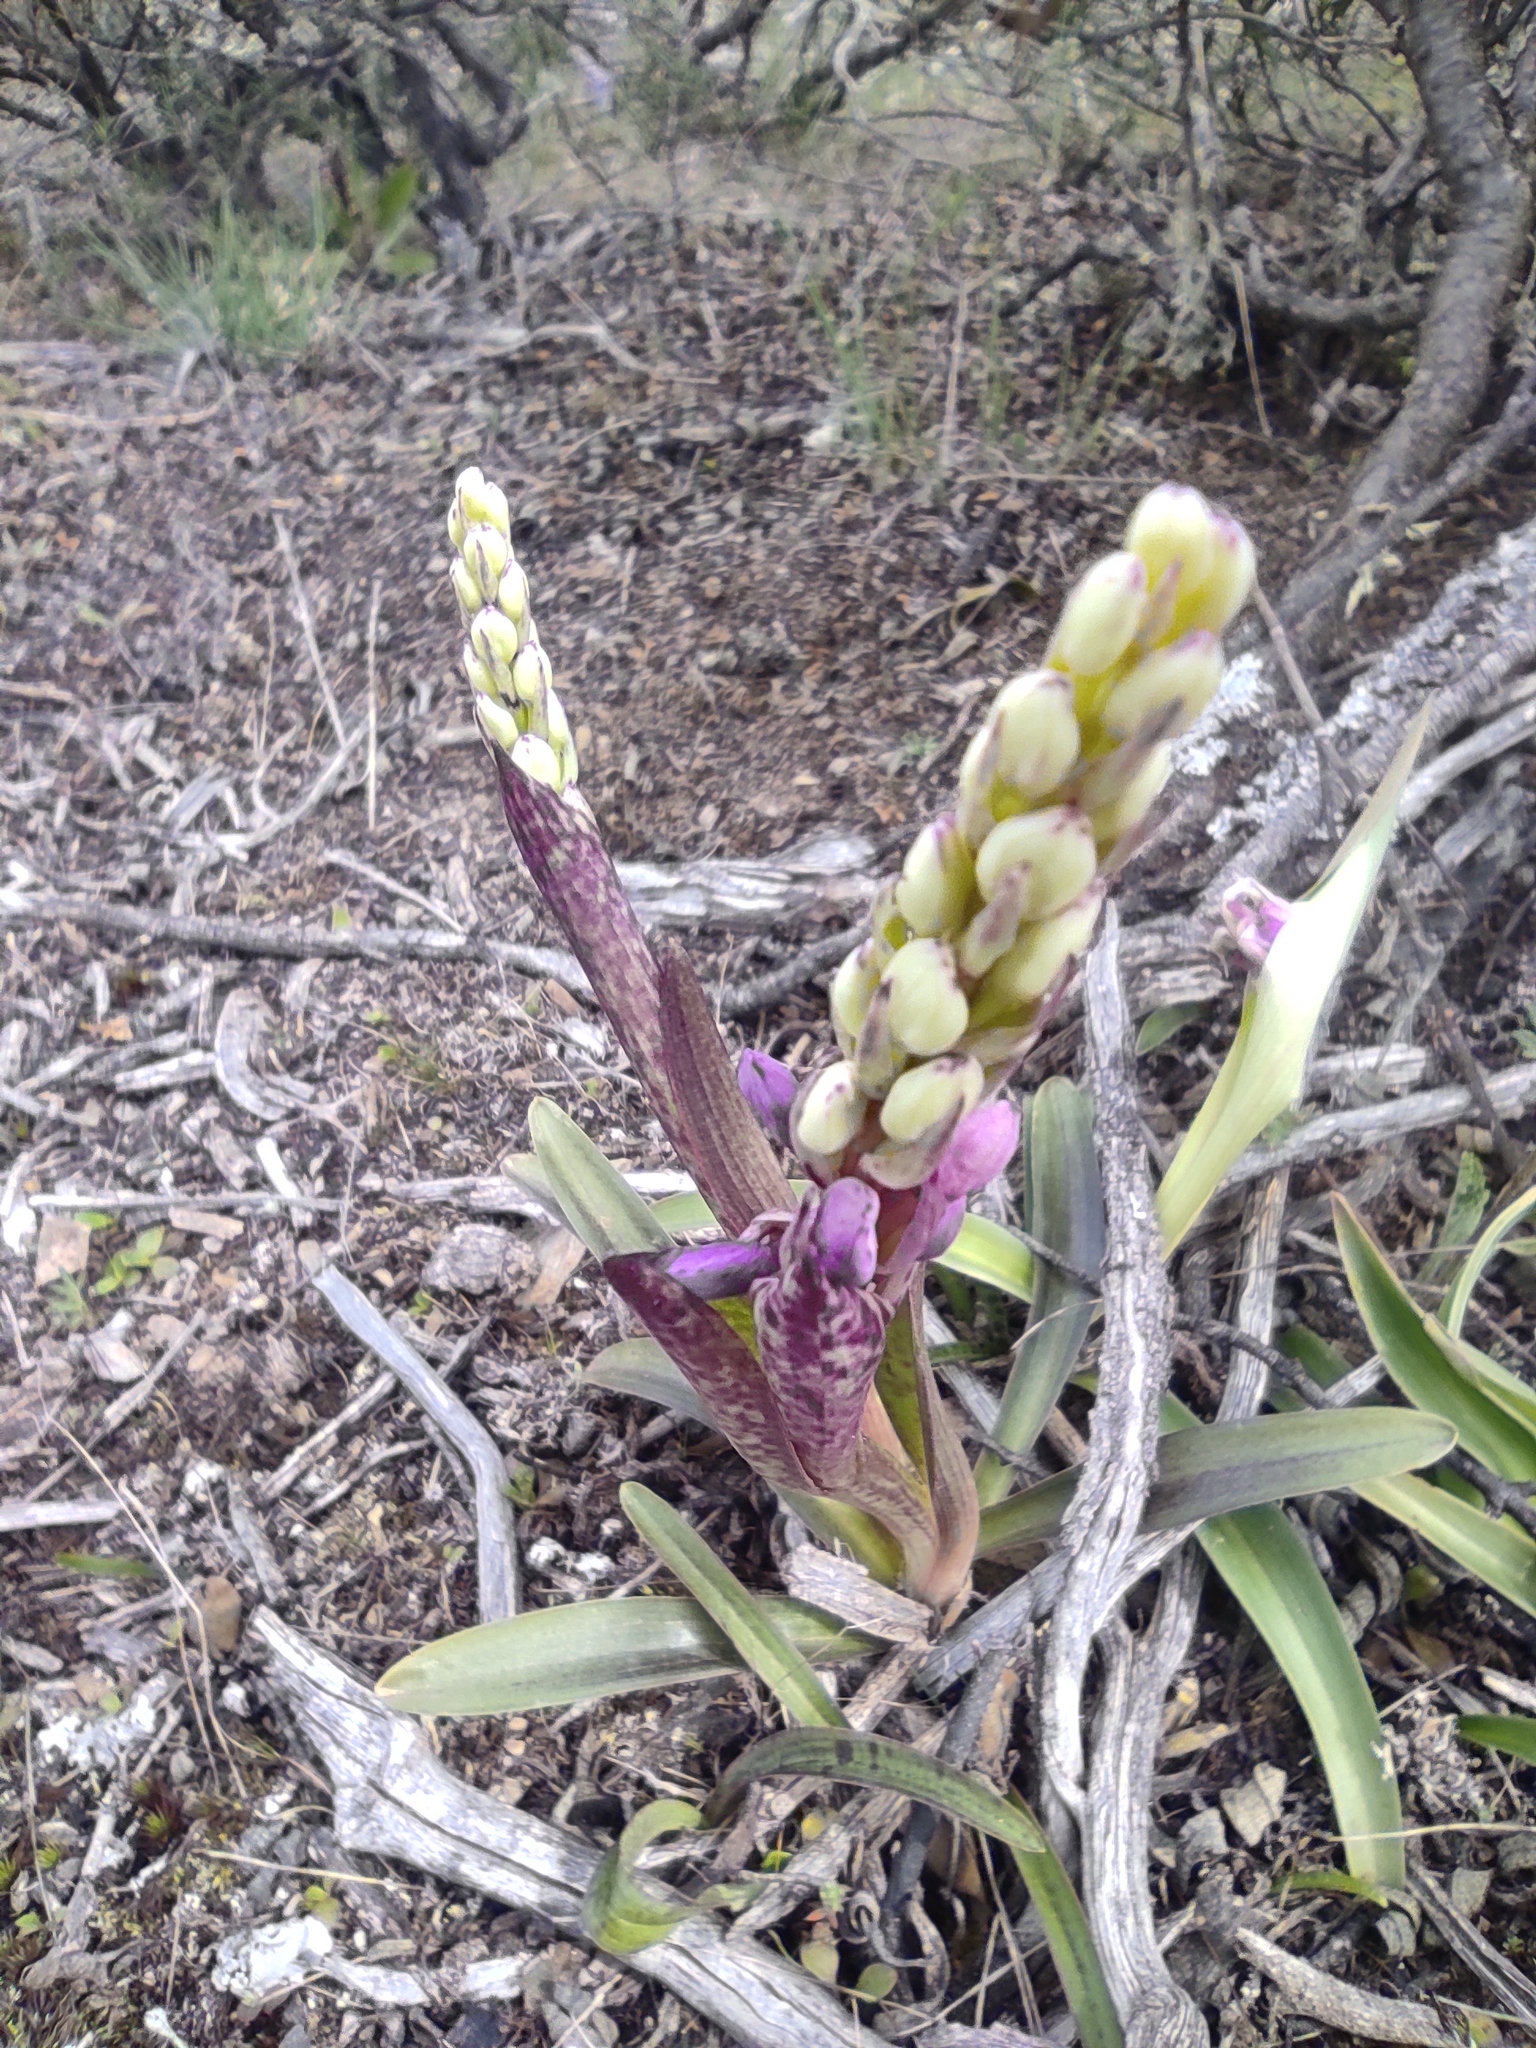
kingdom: Plantae
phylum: Tracheophyta
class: Liliopsida
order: Asparagales
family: Orchidaceae
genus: Orchis
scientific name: Orchis mascula
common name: Early-purple orchid
